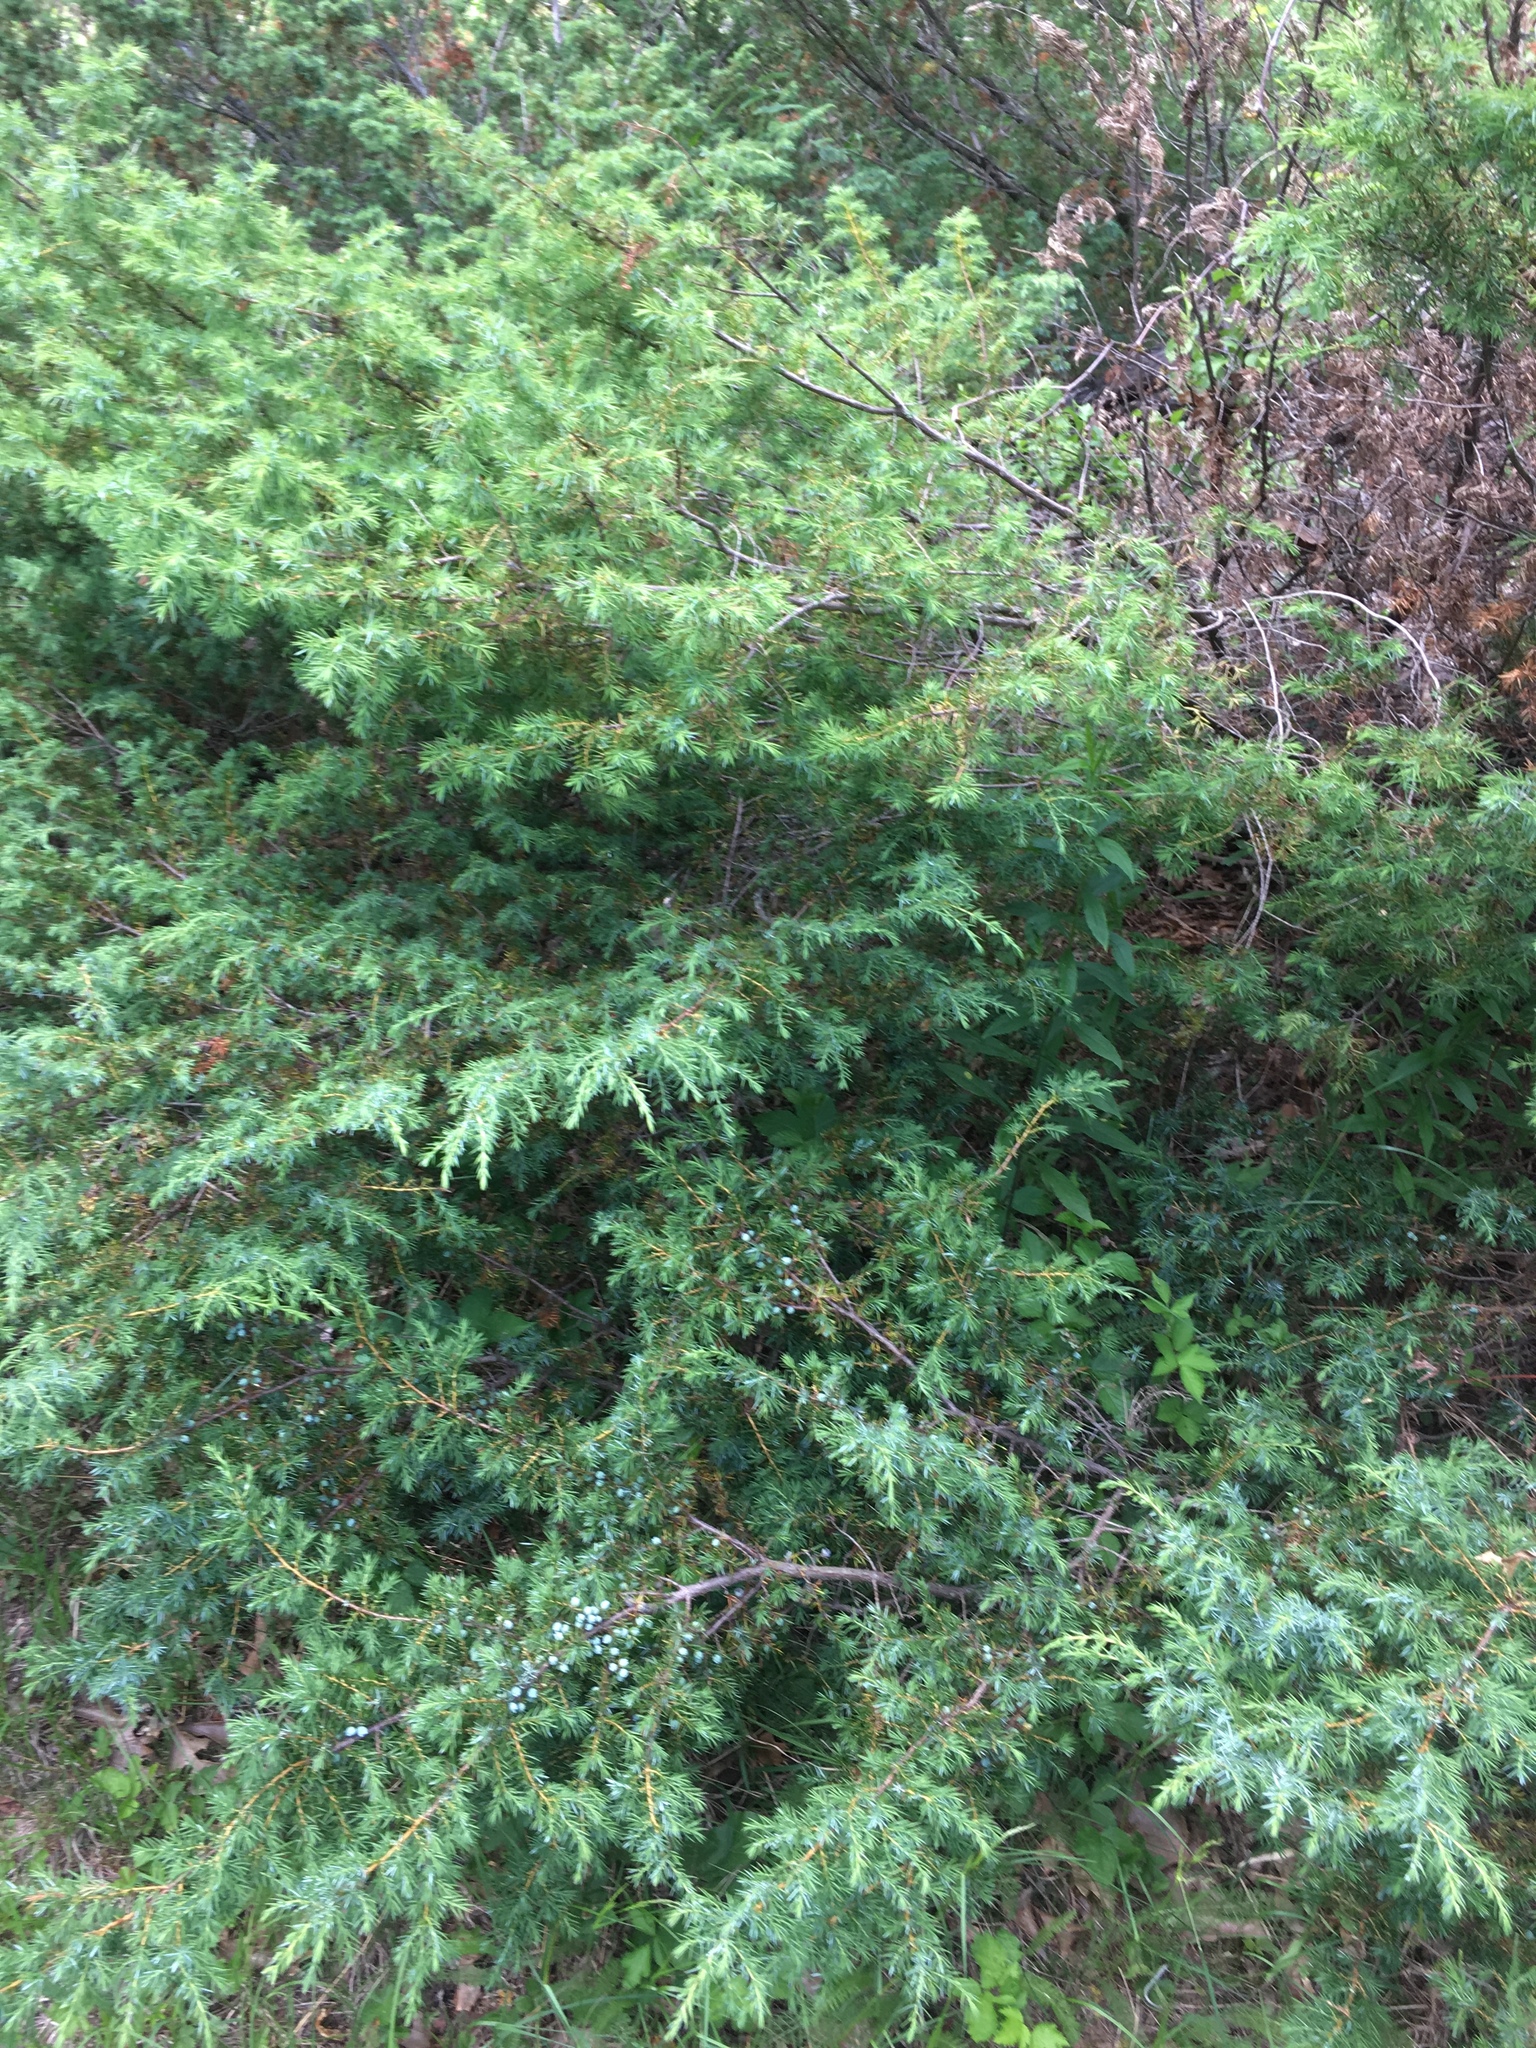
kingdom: Plantae
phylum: Tracheophyta
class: Pinopsida
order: Pinales
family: Cupressaceae
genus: Juniperus
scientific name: Juniperus communis
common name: Common juniper
